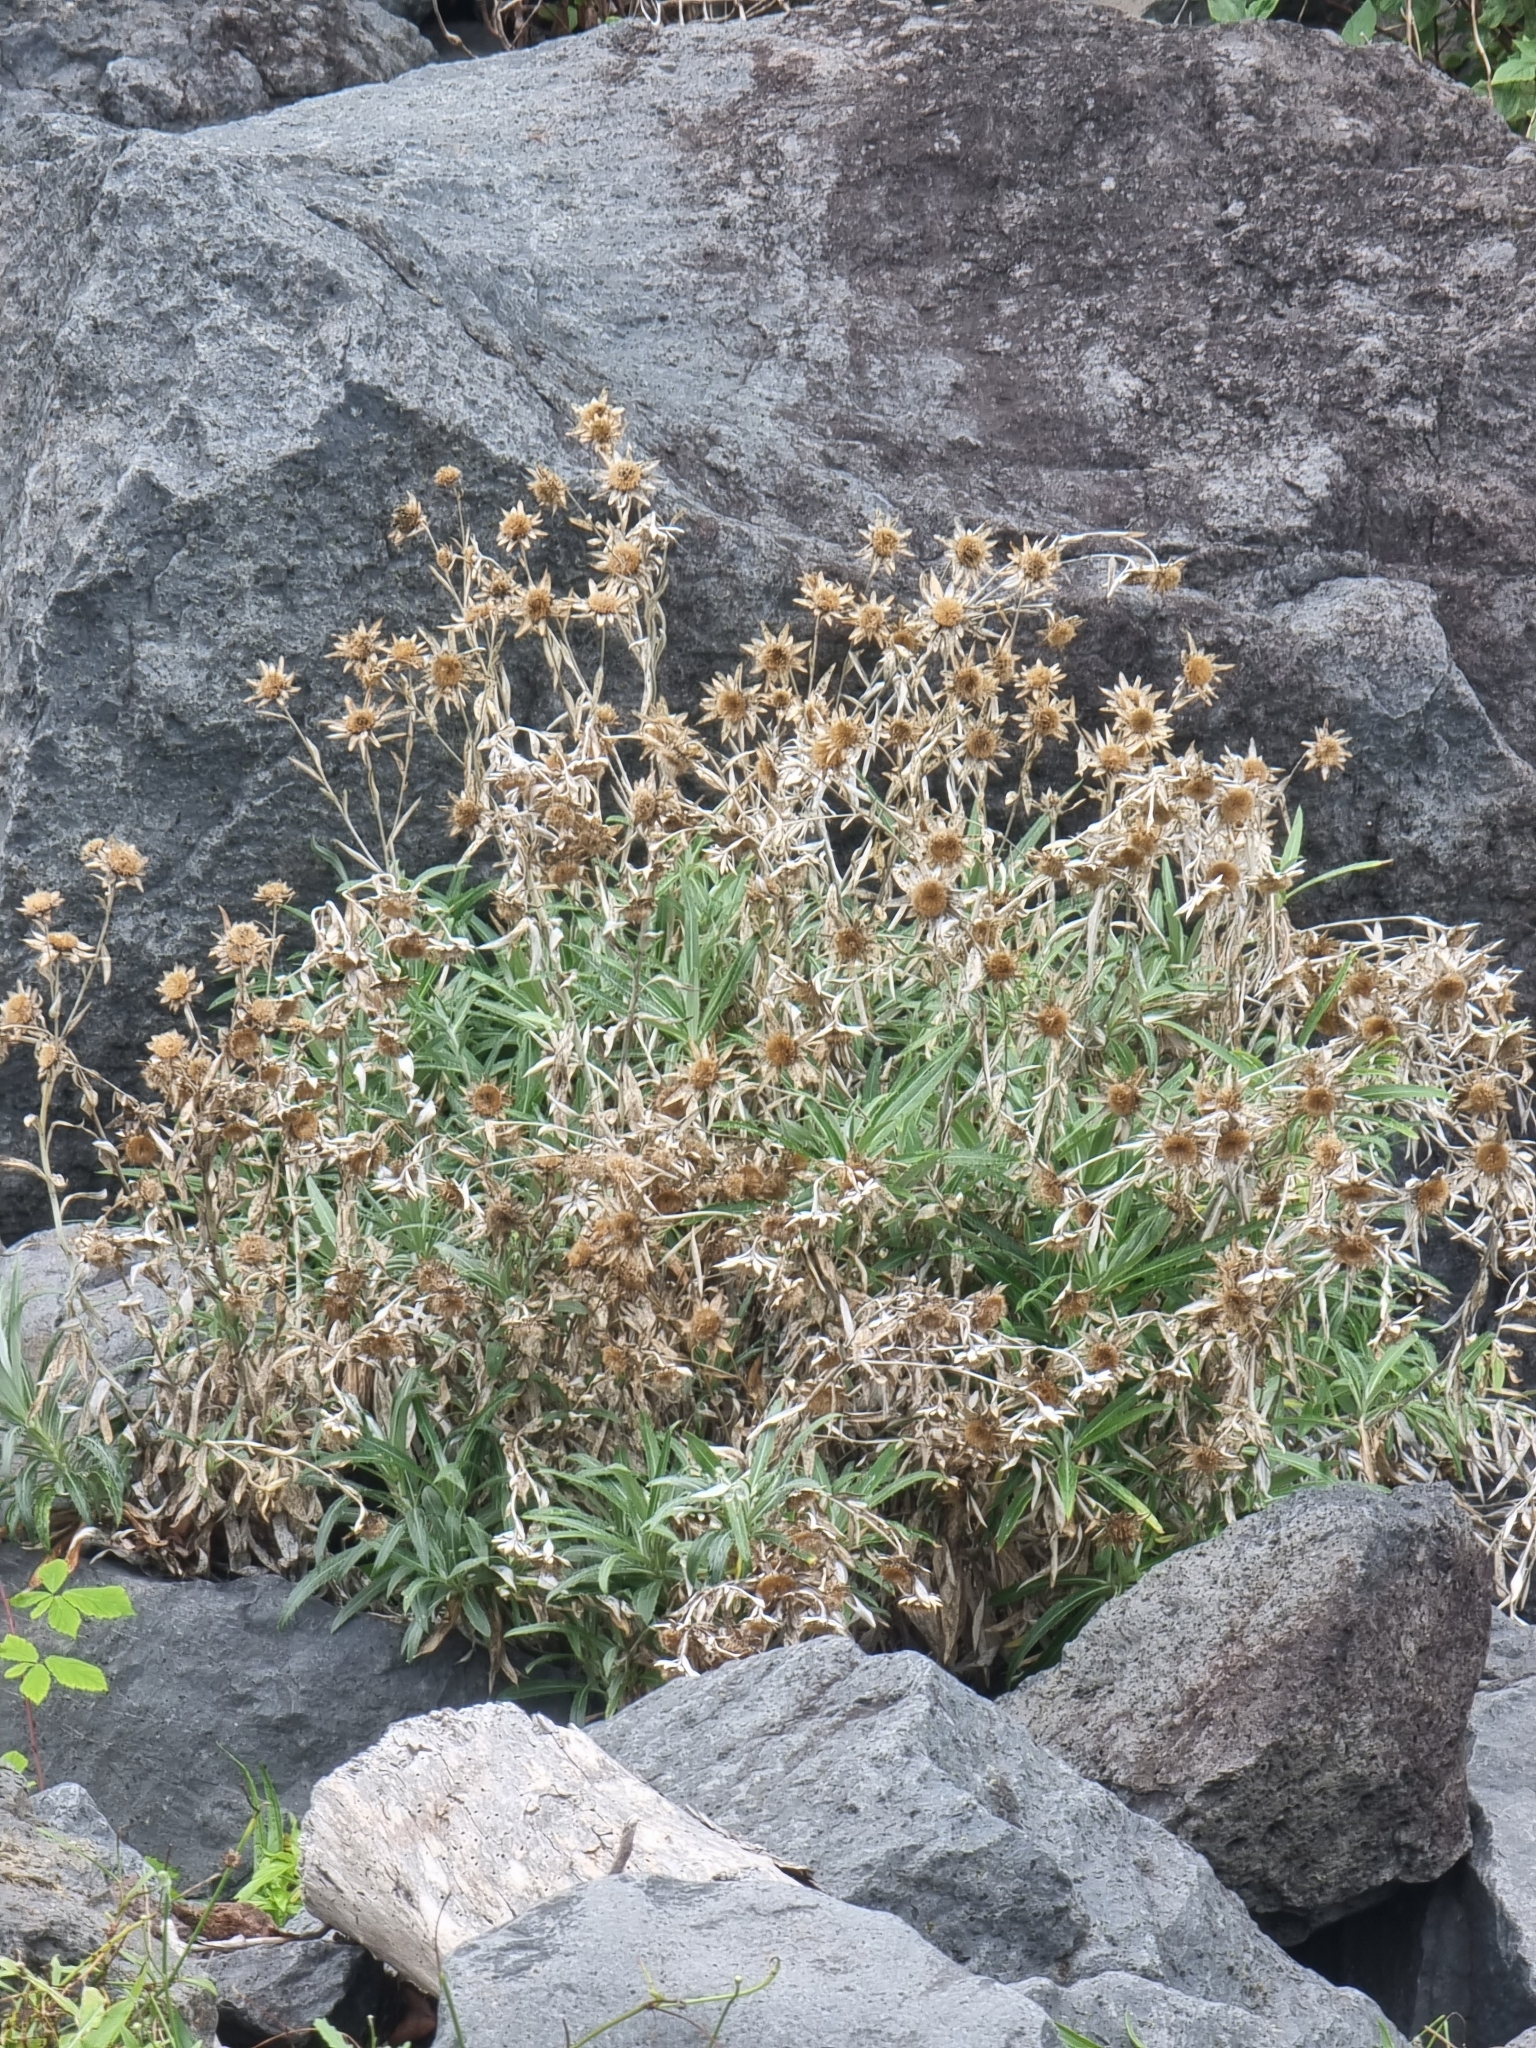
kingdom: Plantae
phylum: Tracheophyta
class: Magnoliopsida
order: Asterales
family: Asteraceae
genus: Carlina
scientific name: Carlina salicifolia
